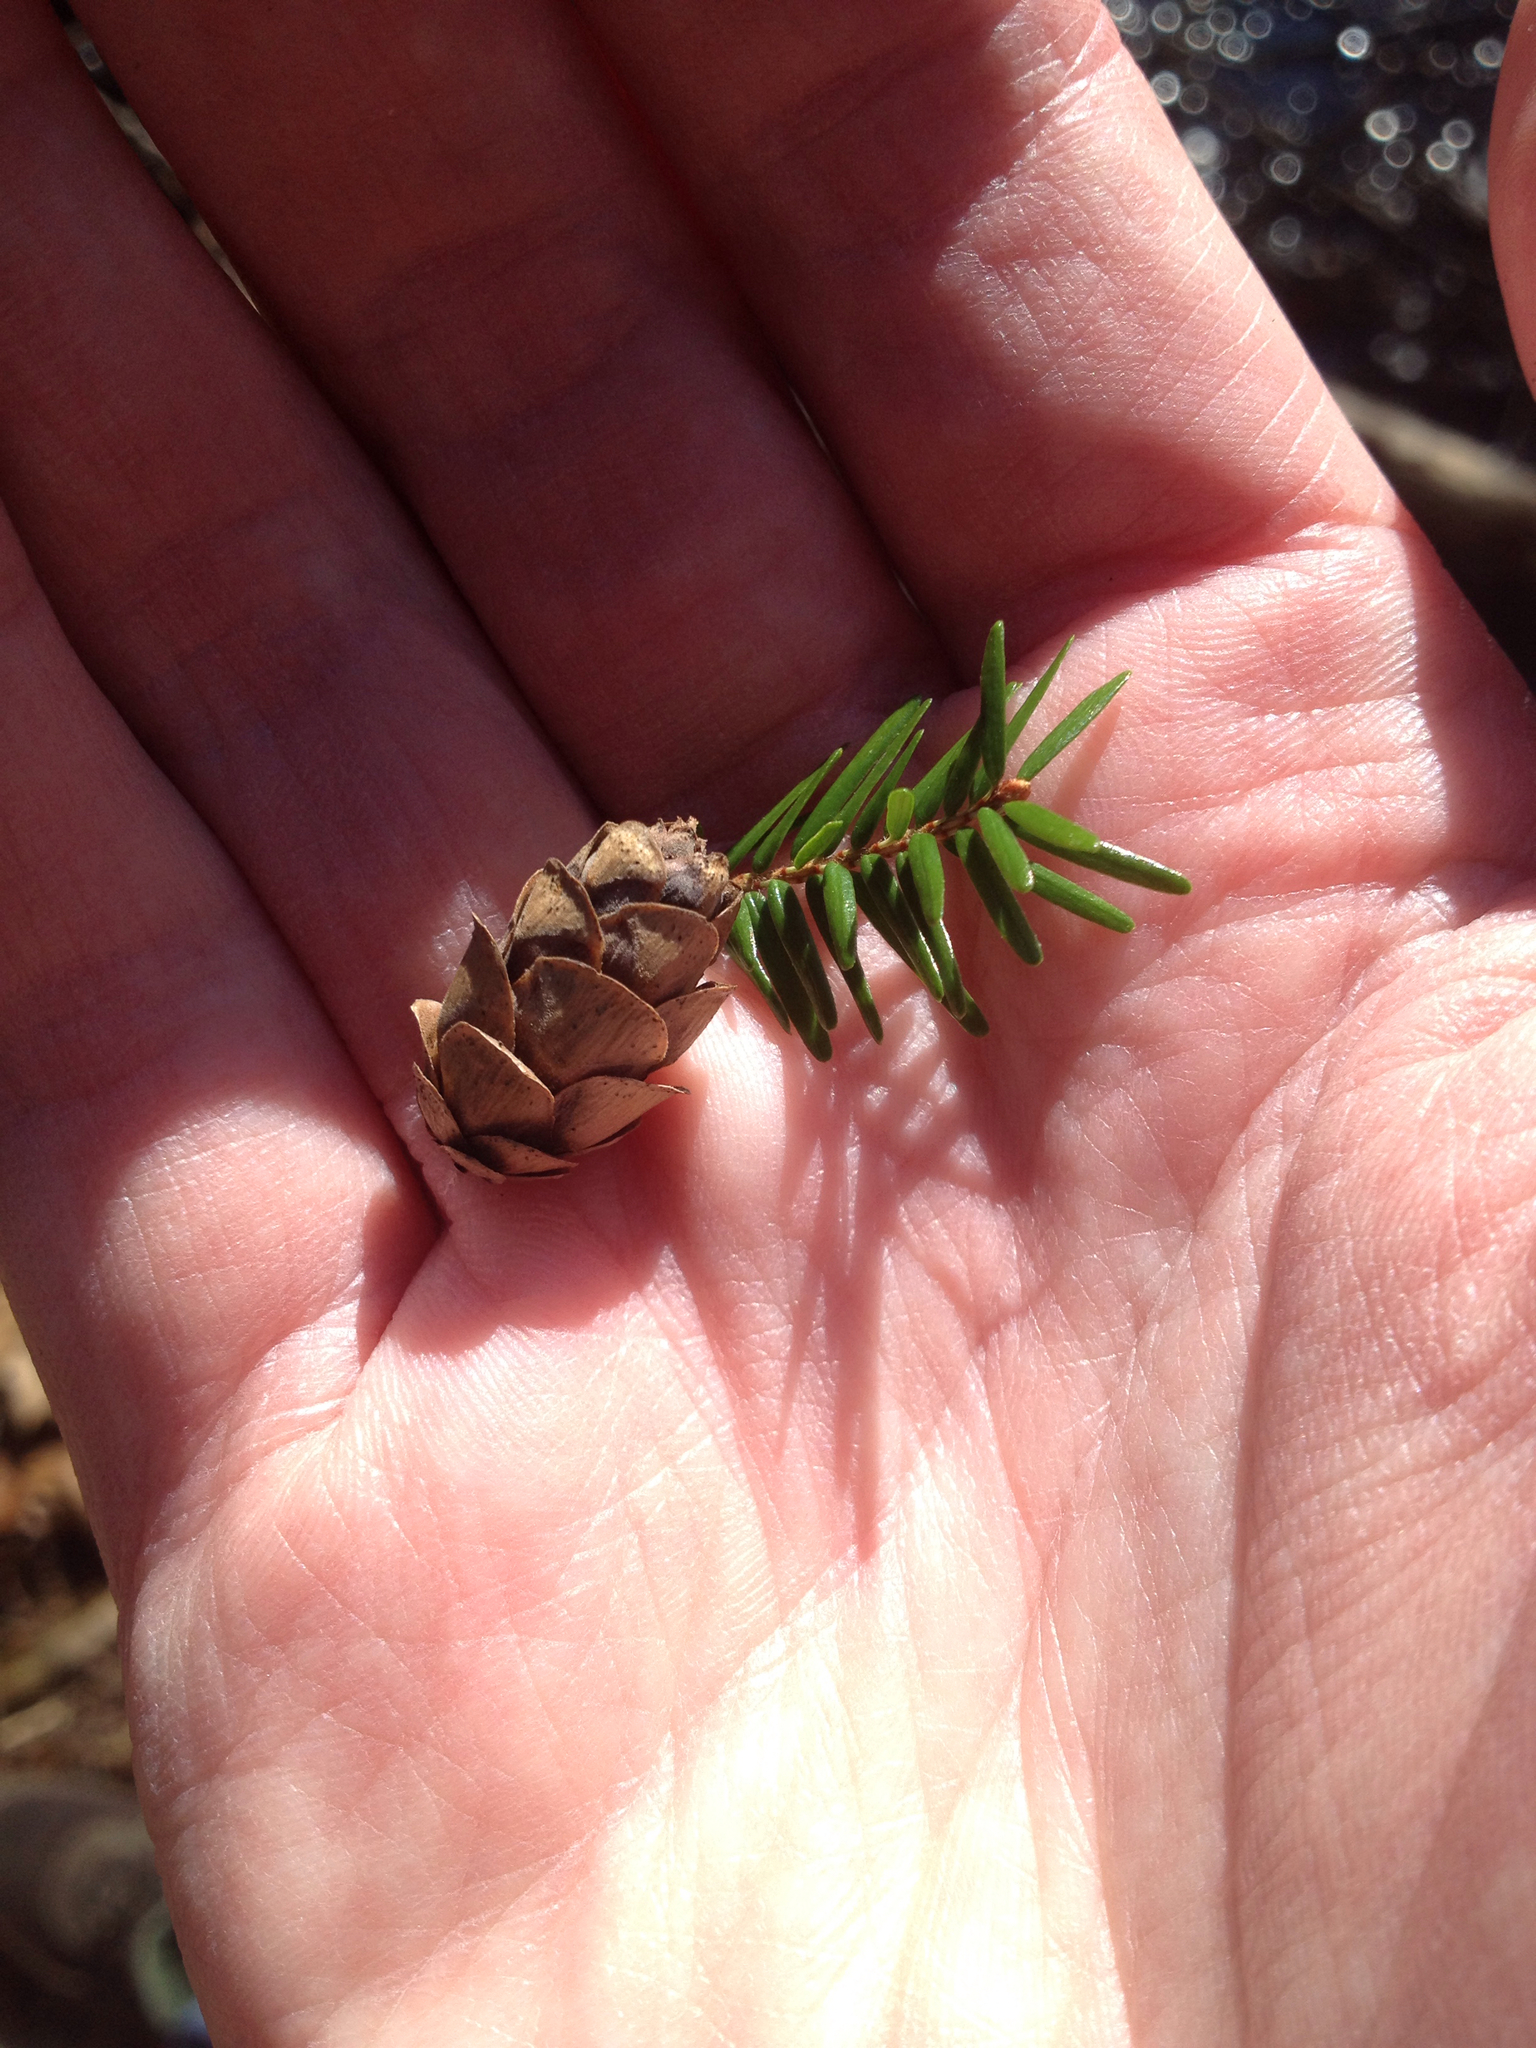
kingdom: Plantae
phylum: Tracheophyta
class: Pinopsida
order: Pinales
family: Pinaceae
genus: Tsuga
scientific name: Tsuga canadensis
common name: Eastern hemlock
